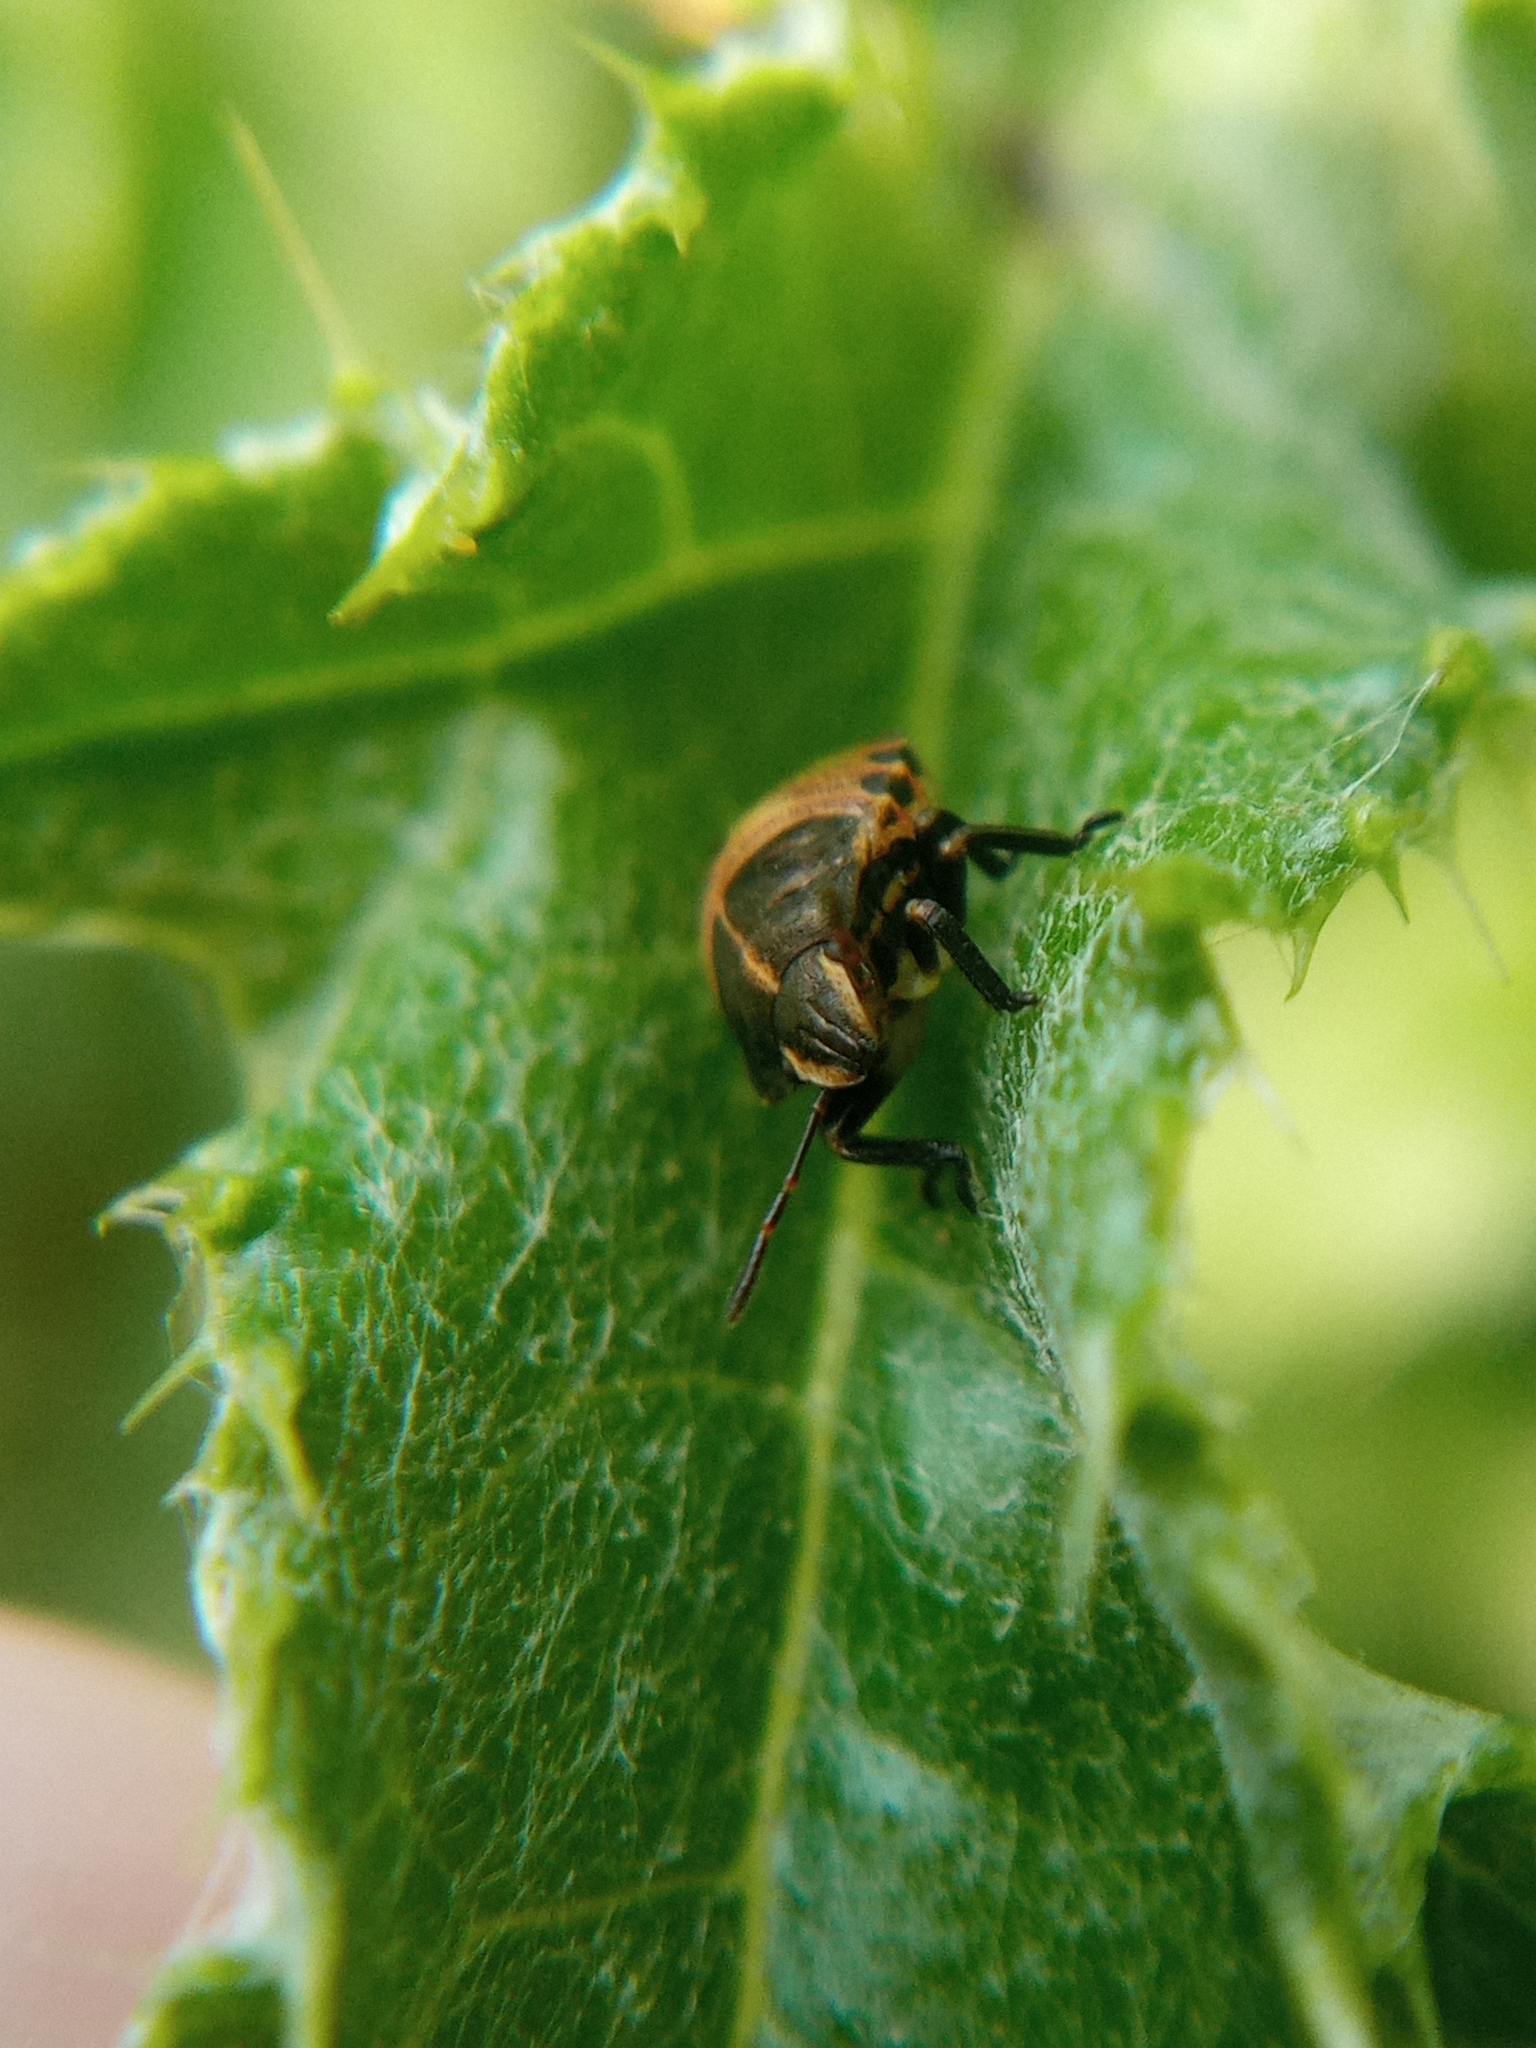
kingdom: Animalia
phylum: Arthropoda
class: Insecta
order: Hemiptera
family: Pentatomidae
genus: Graphosoma
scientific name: Graphosoma italicum
